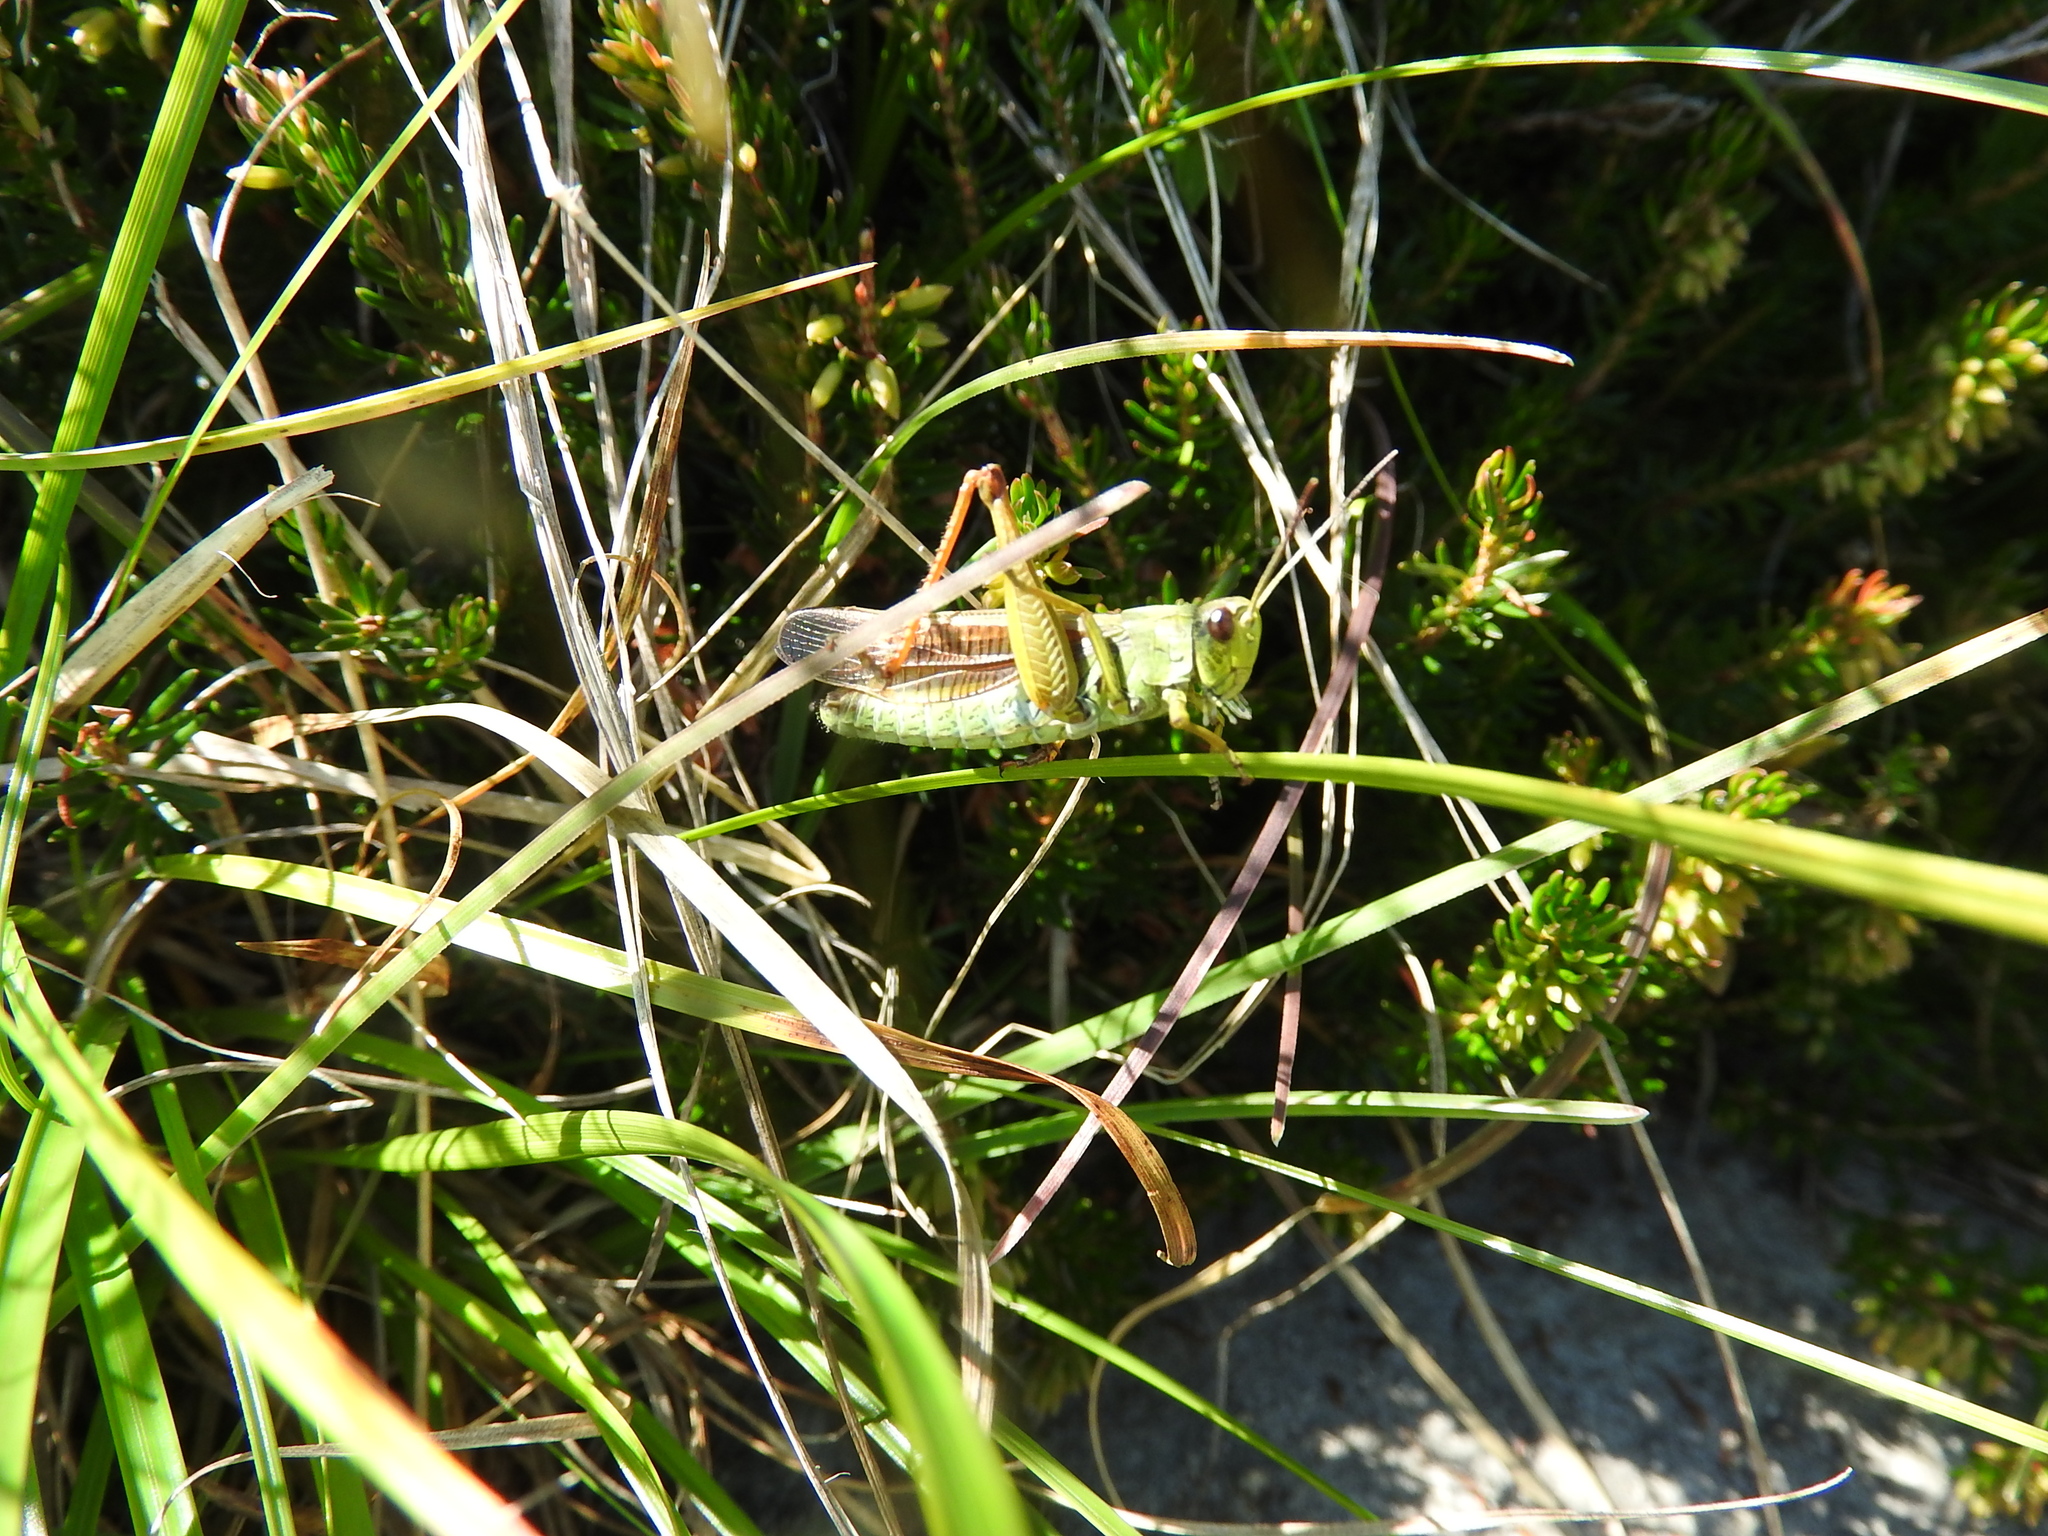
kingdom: Animalia
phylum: Arthropoda
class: Insecta
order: Orthoptera
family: Acrididae
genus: Stauroderus
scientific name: Stauroderus scalaris
